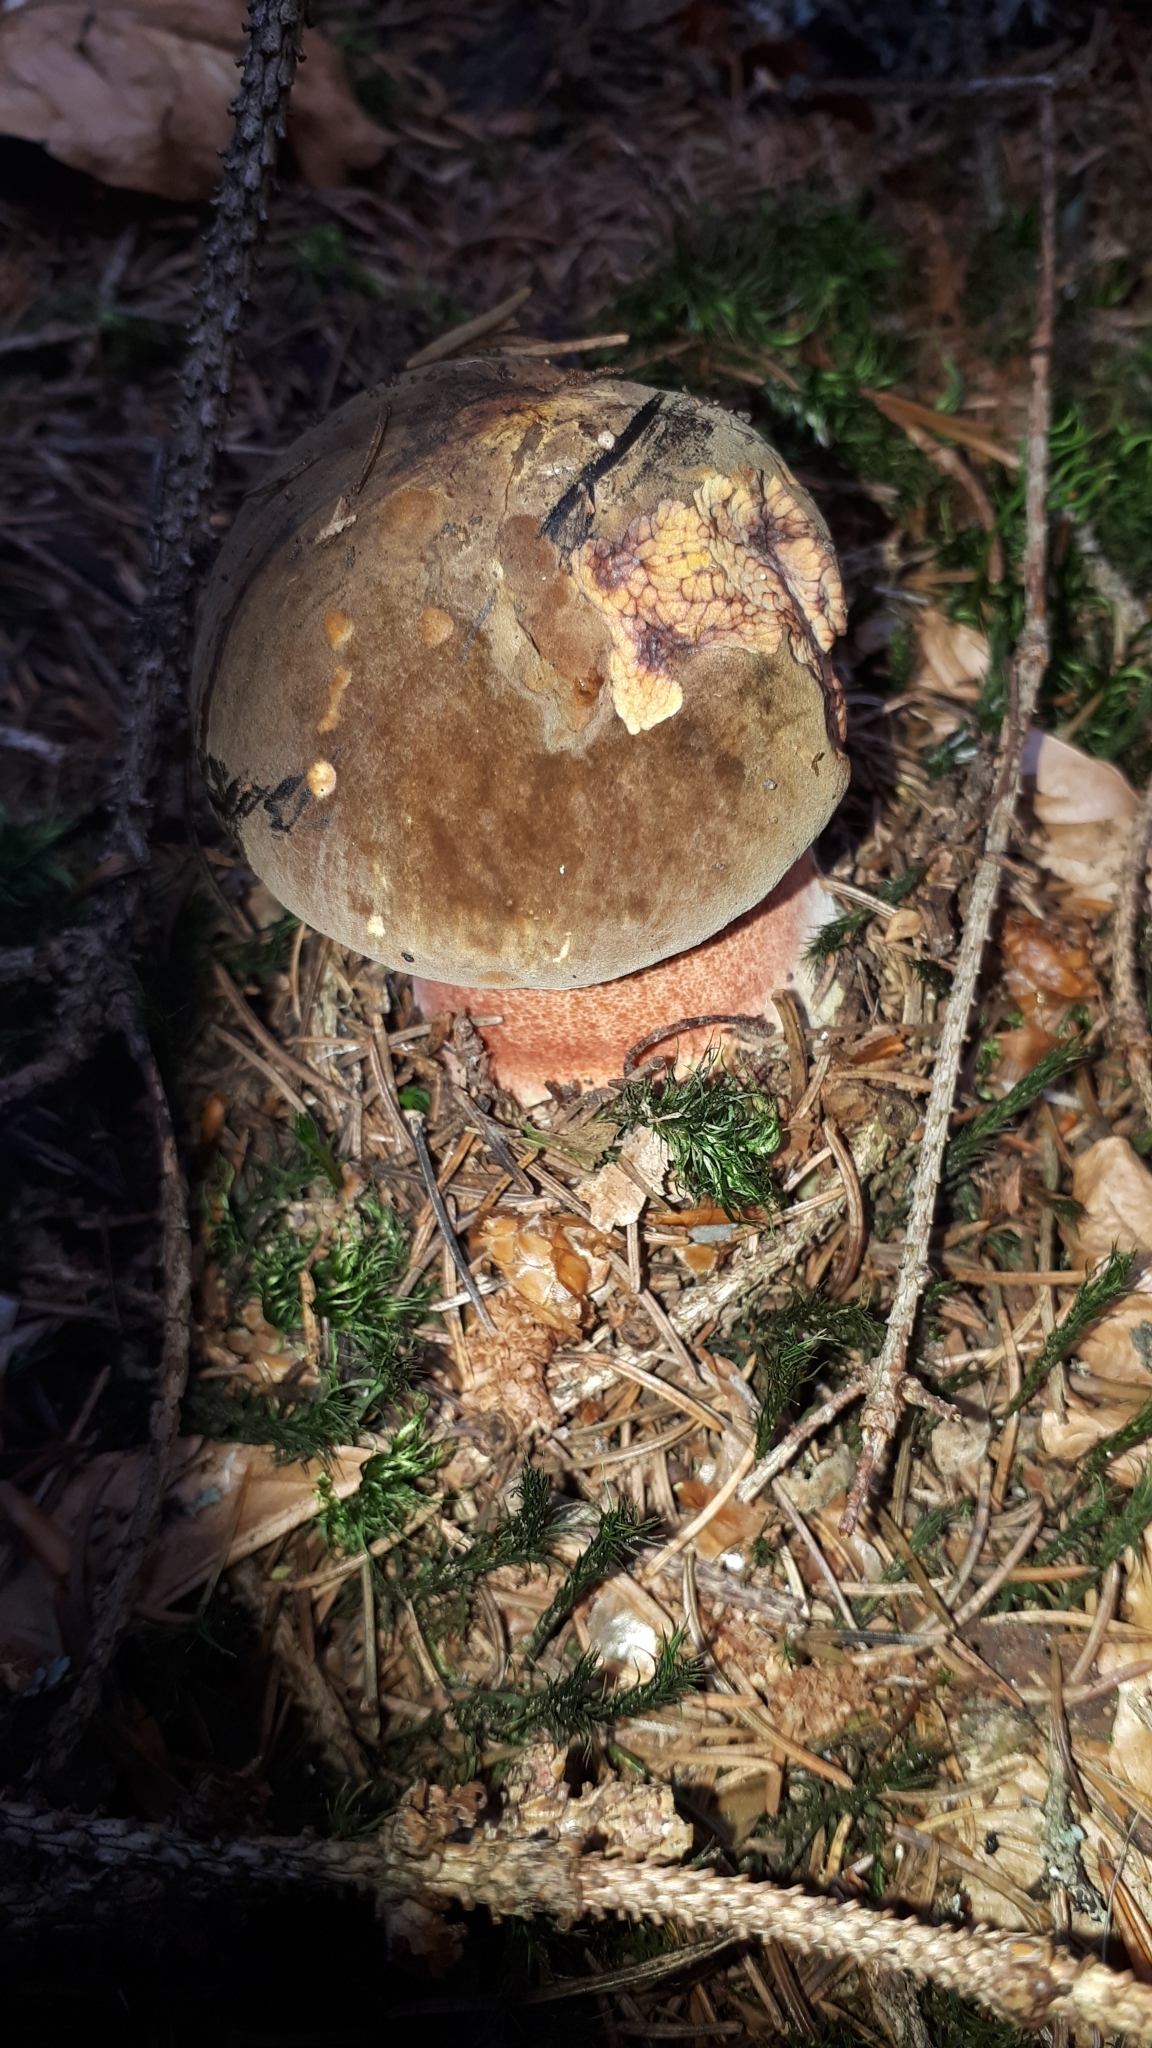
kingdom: Fungi
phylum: Basidiomycota
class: Agaricomycetes
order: Boletales
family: Boletaceae
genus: Neoboletus
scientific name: Neoboletus erythropus
